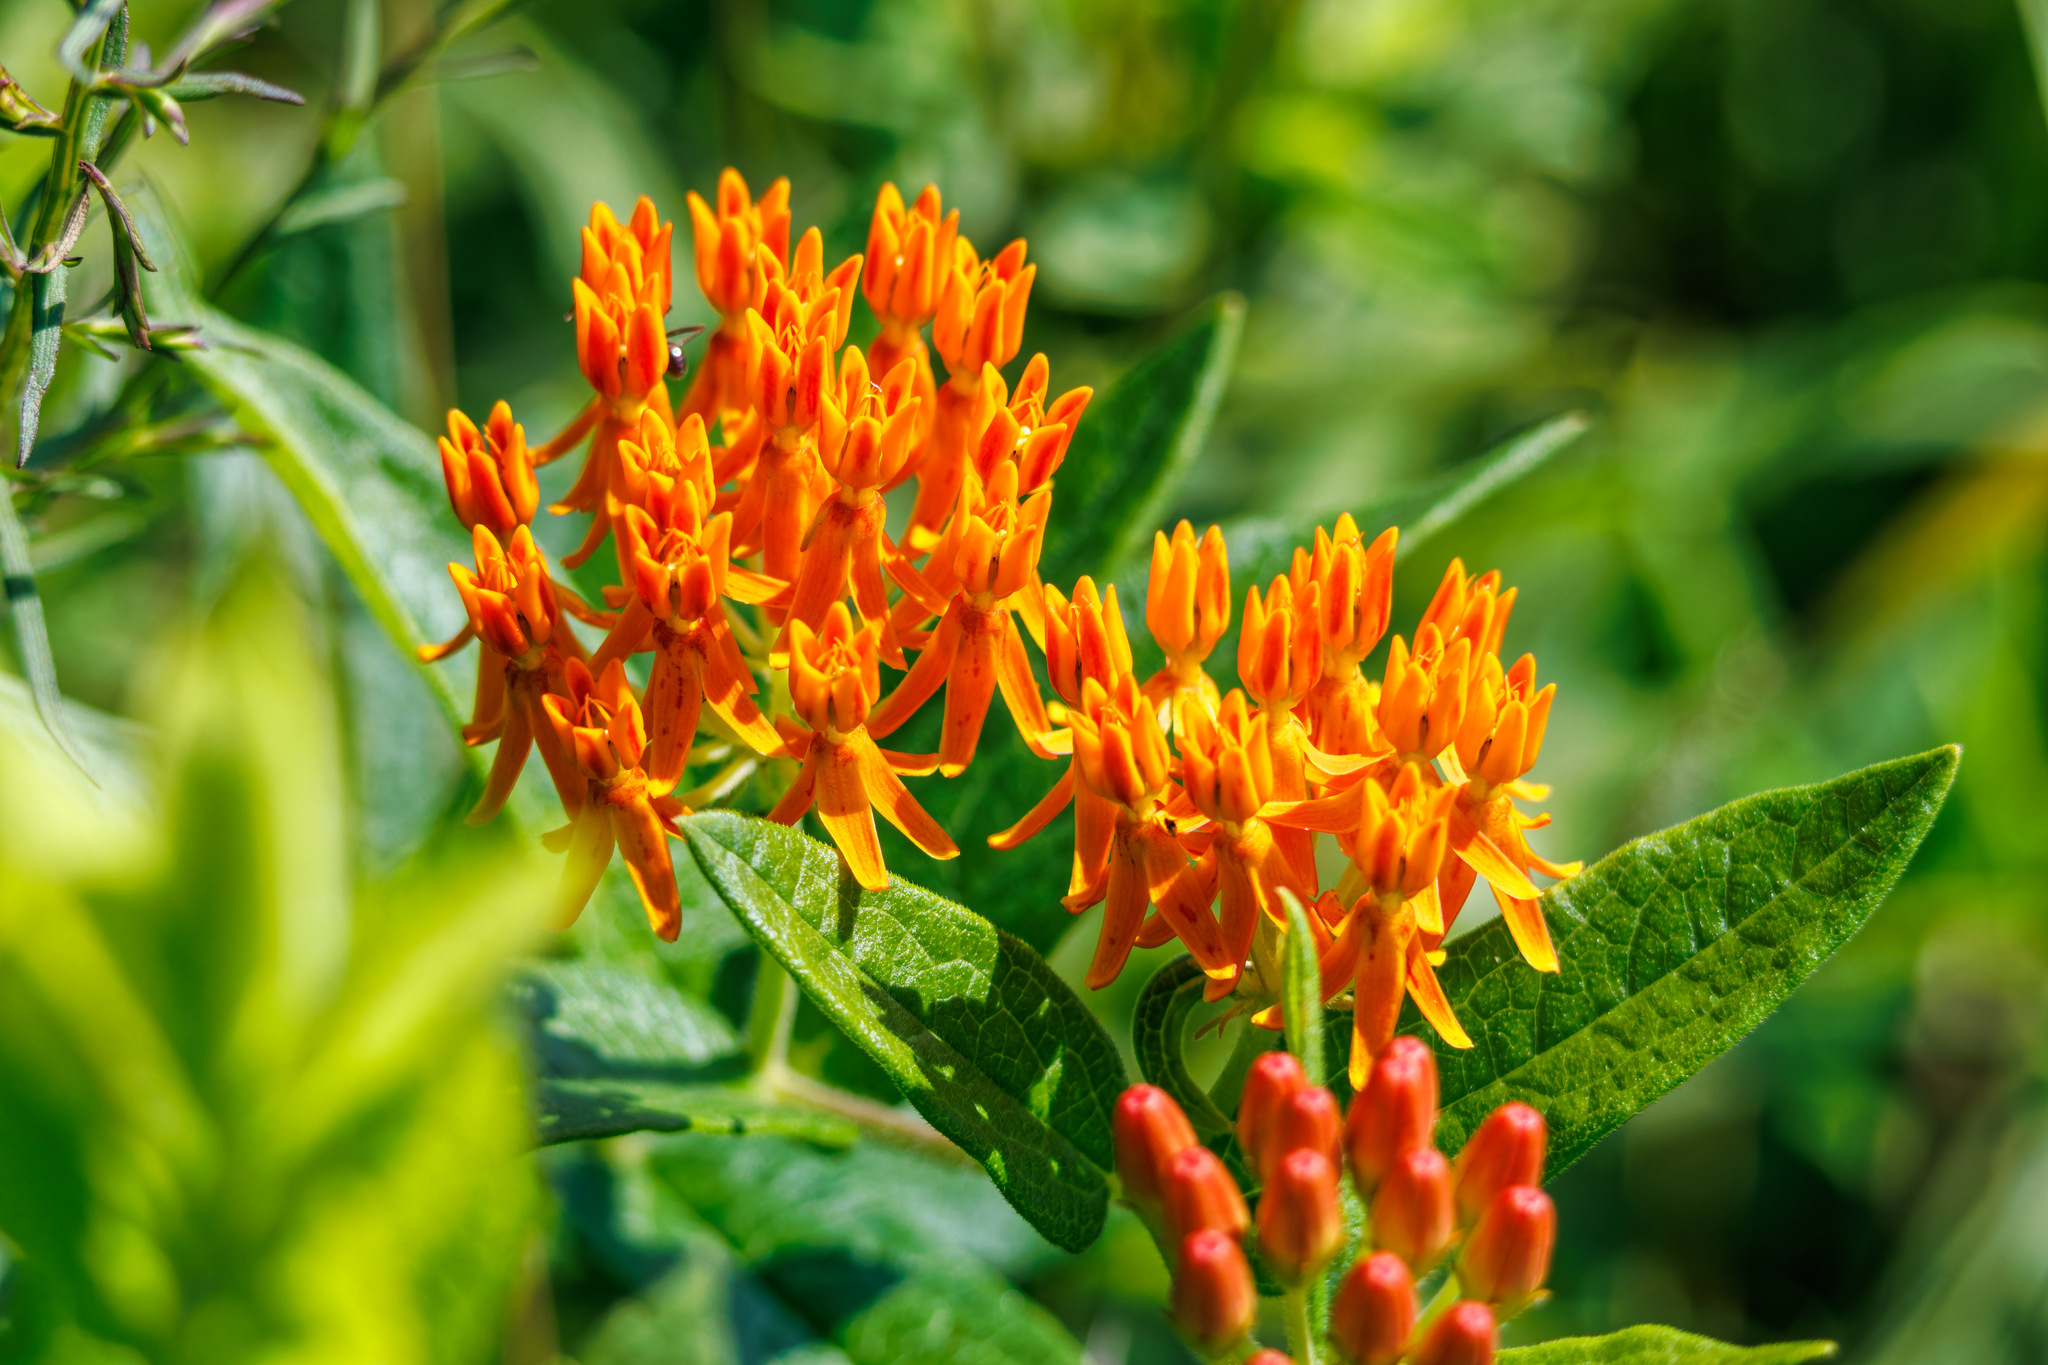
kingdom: Plantae
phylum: Tracheophyta
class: Magnoliopsida
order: Gentianales
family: Apocynaceae
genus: Asclepias
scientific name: Asclepias tuberosa
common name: Butterfly milkweed
